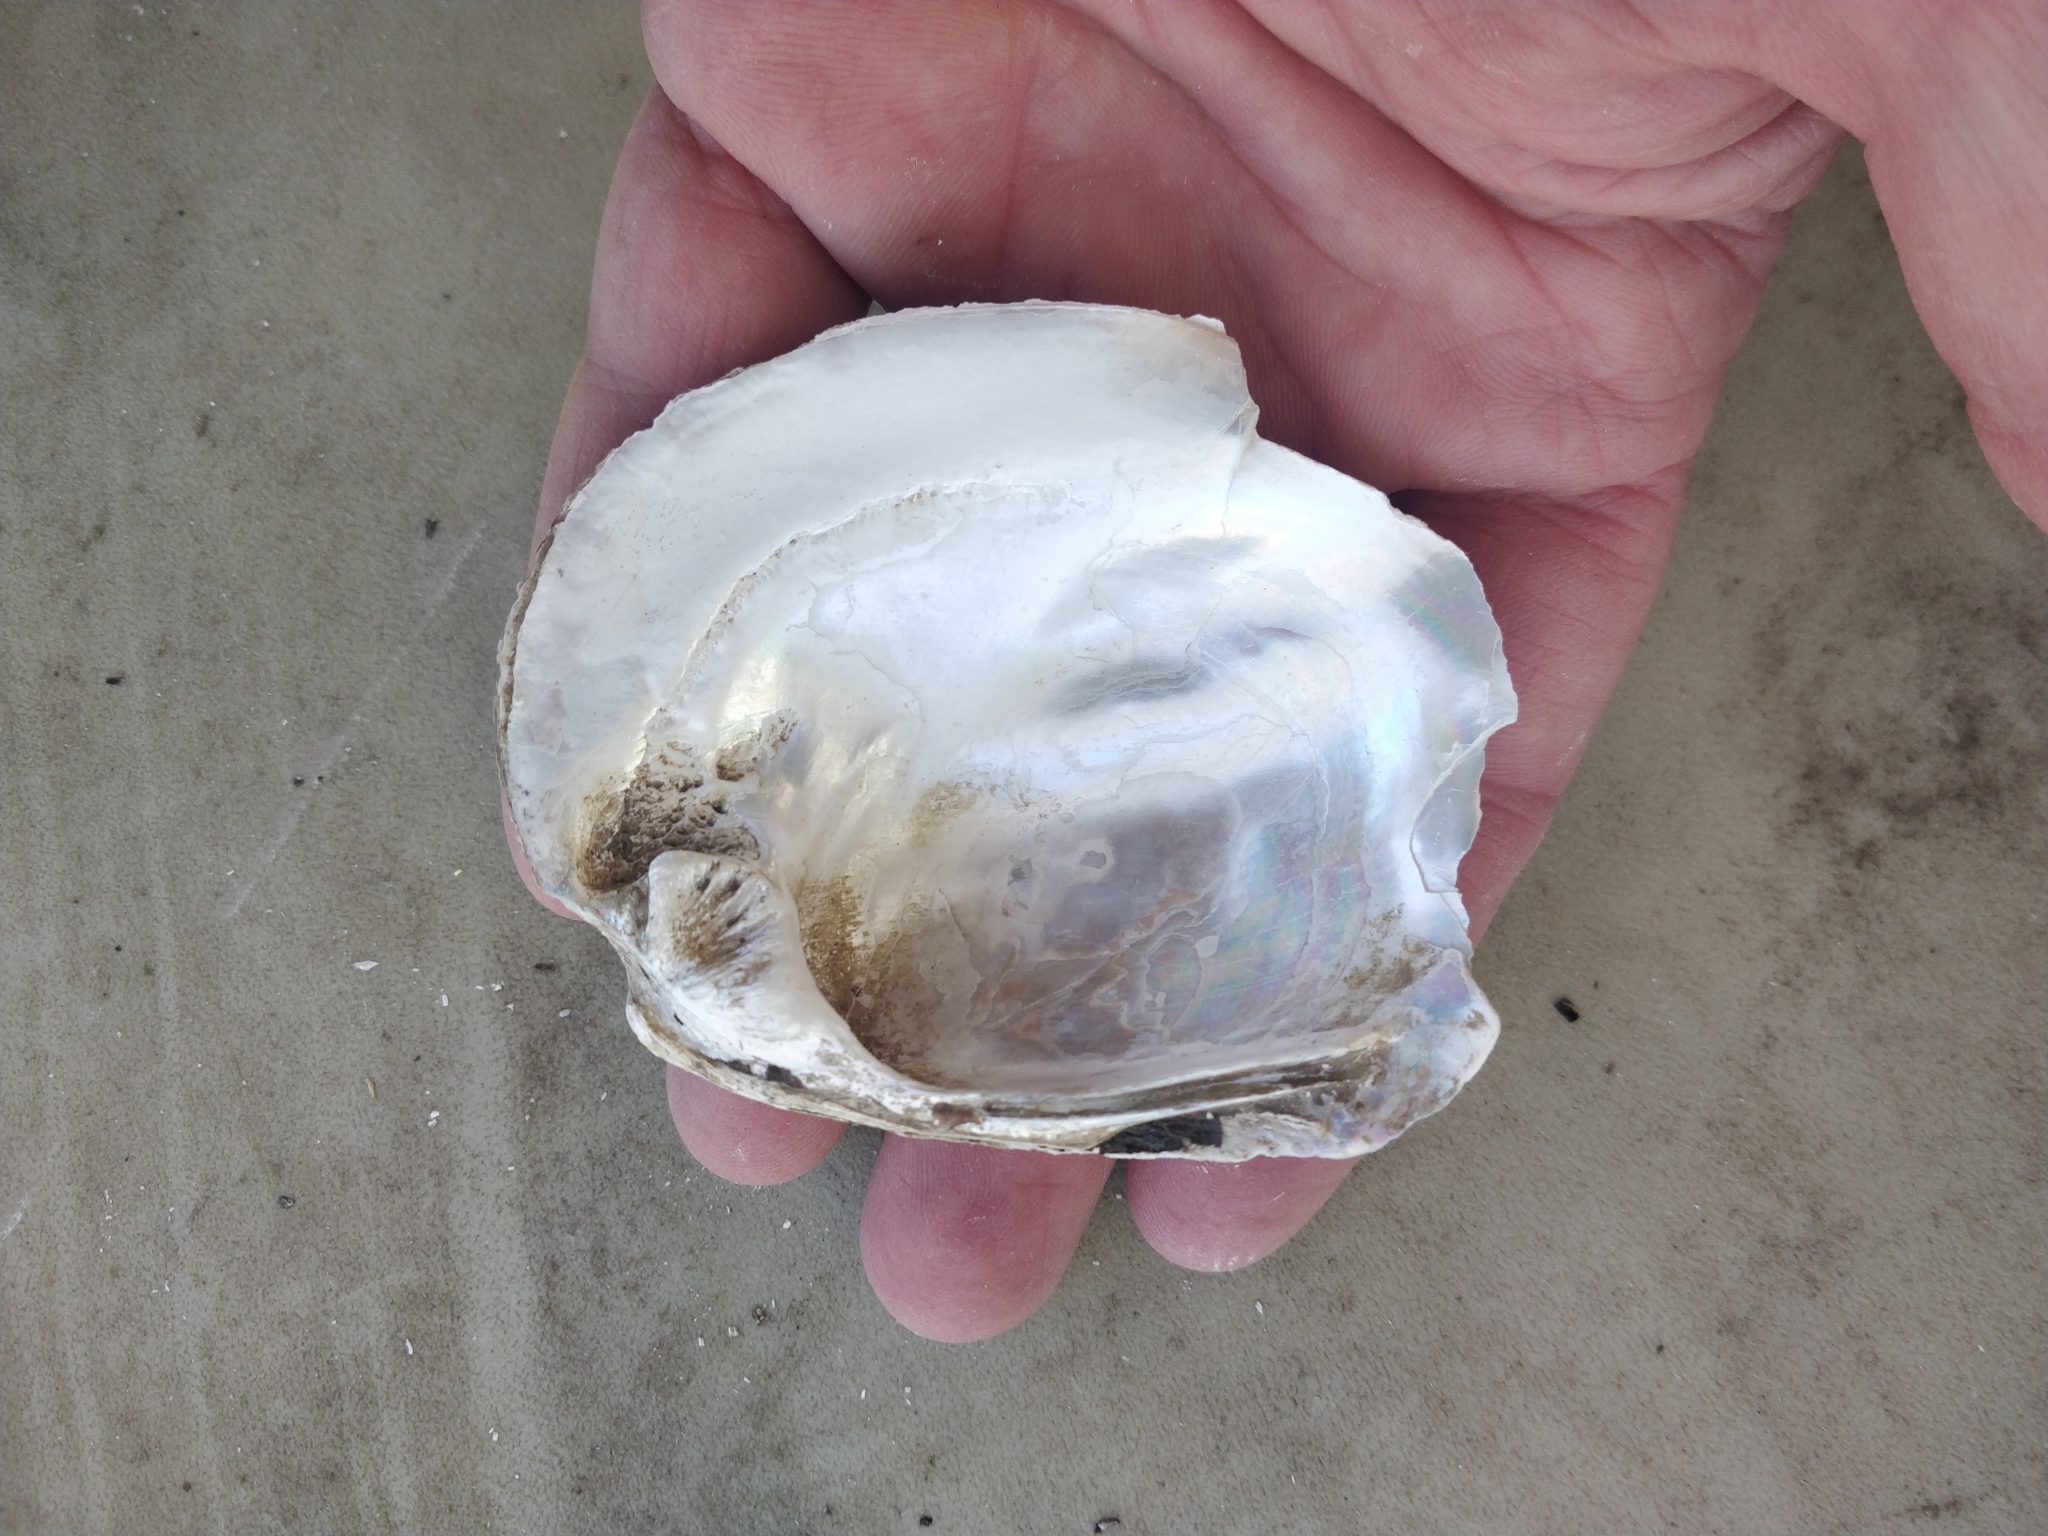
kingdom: Animalia
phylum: Mollusca
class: Bivalvia
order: Unionida
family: Unionidae
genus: Amblema
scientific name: Amblema plicata
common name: Threeridge
